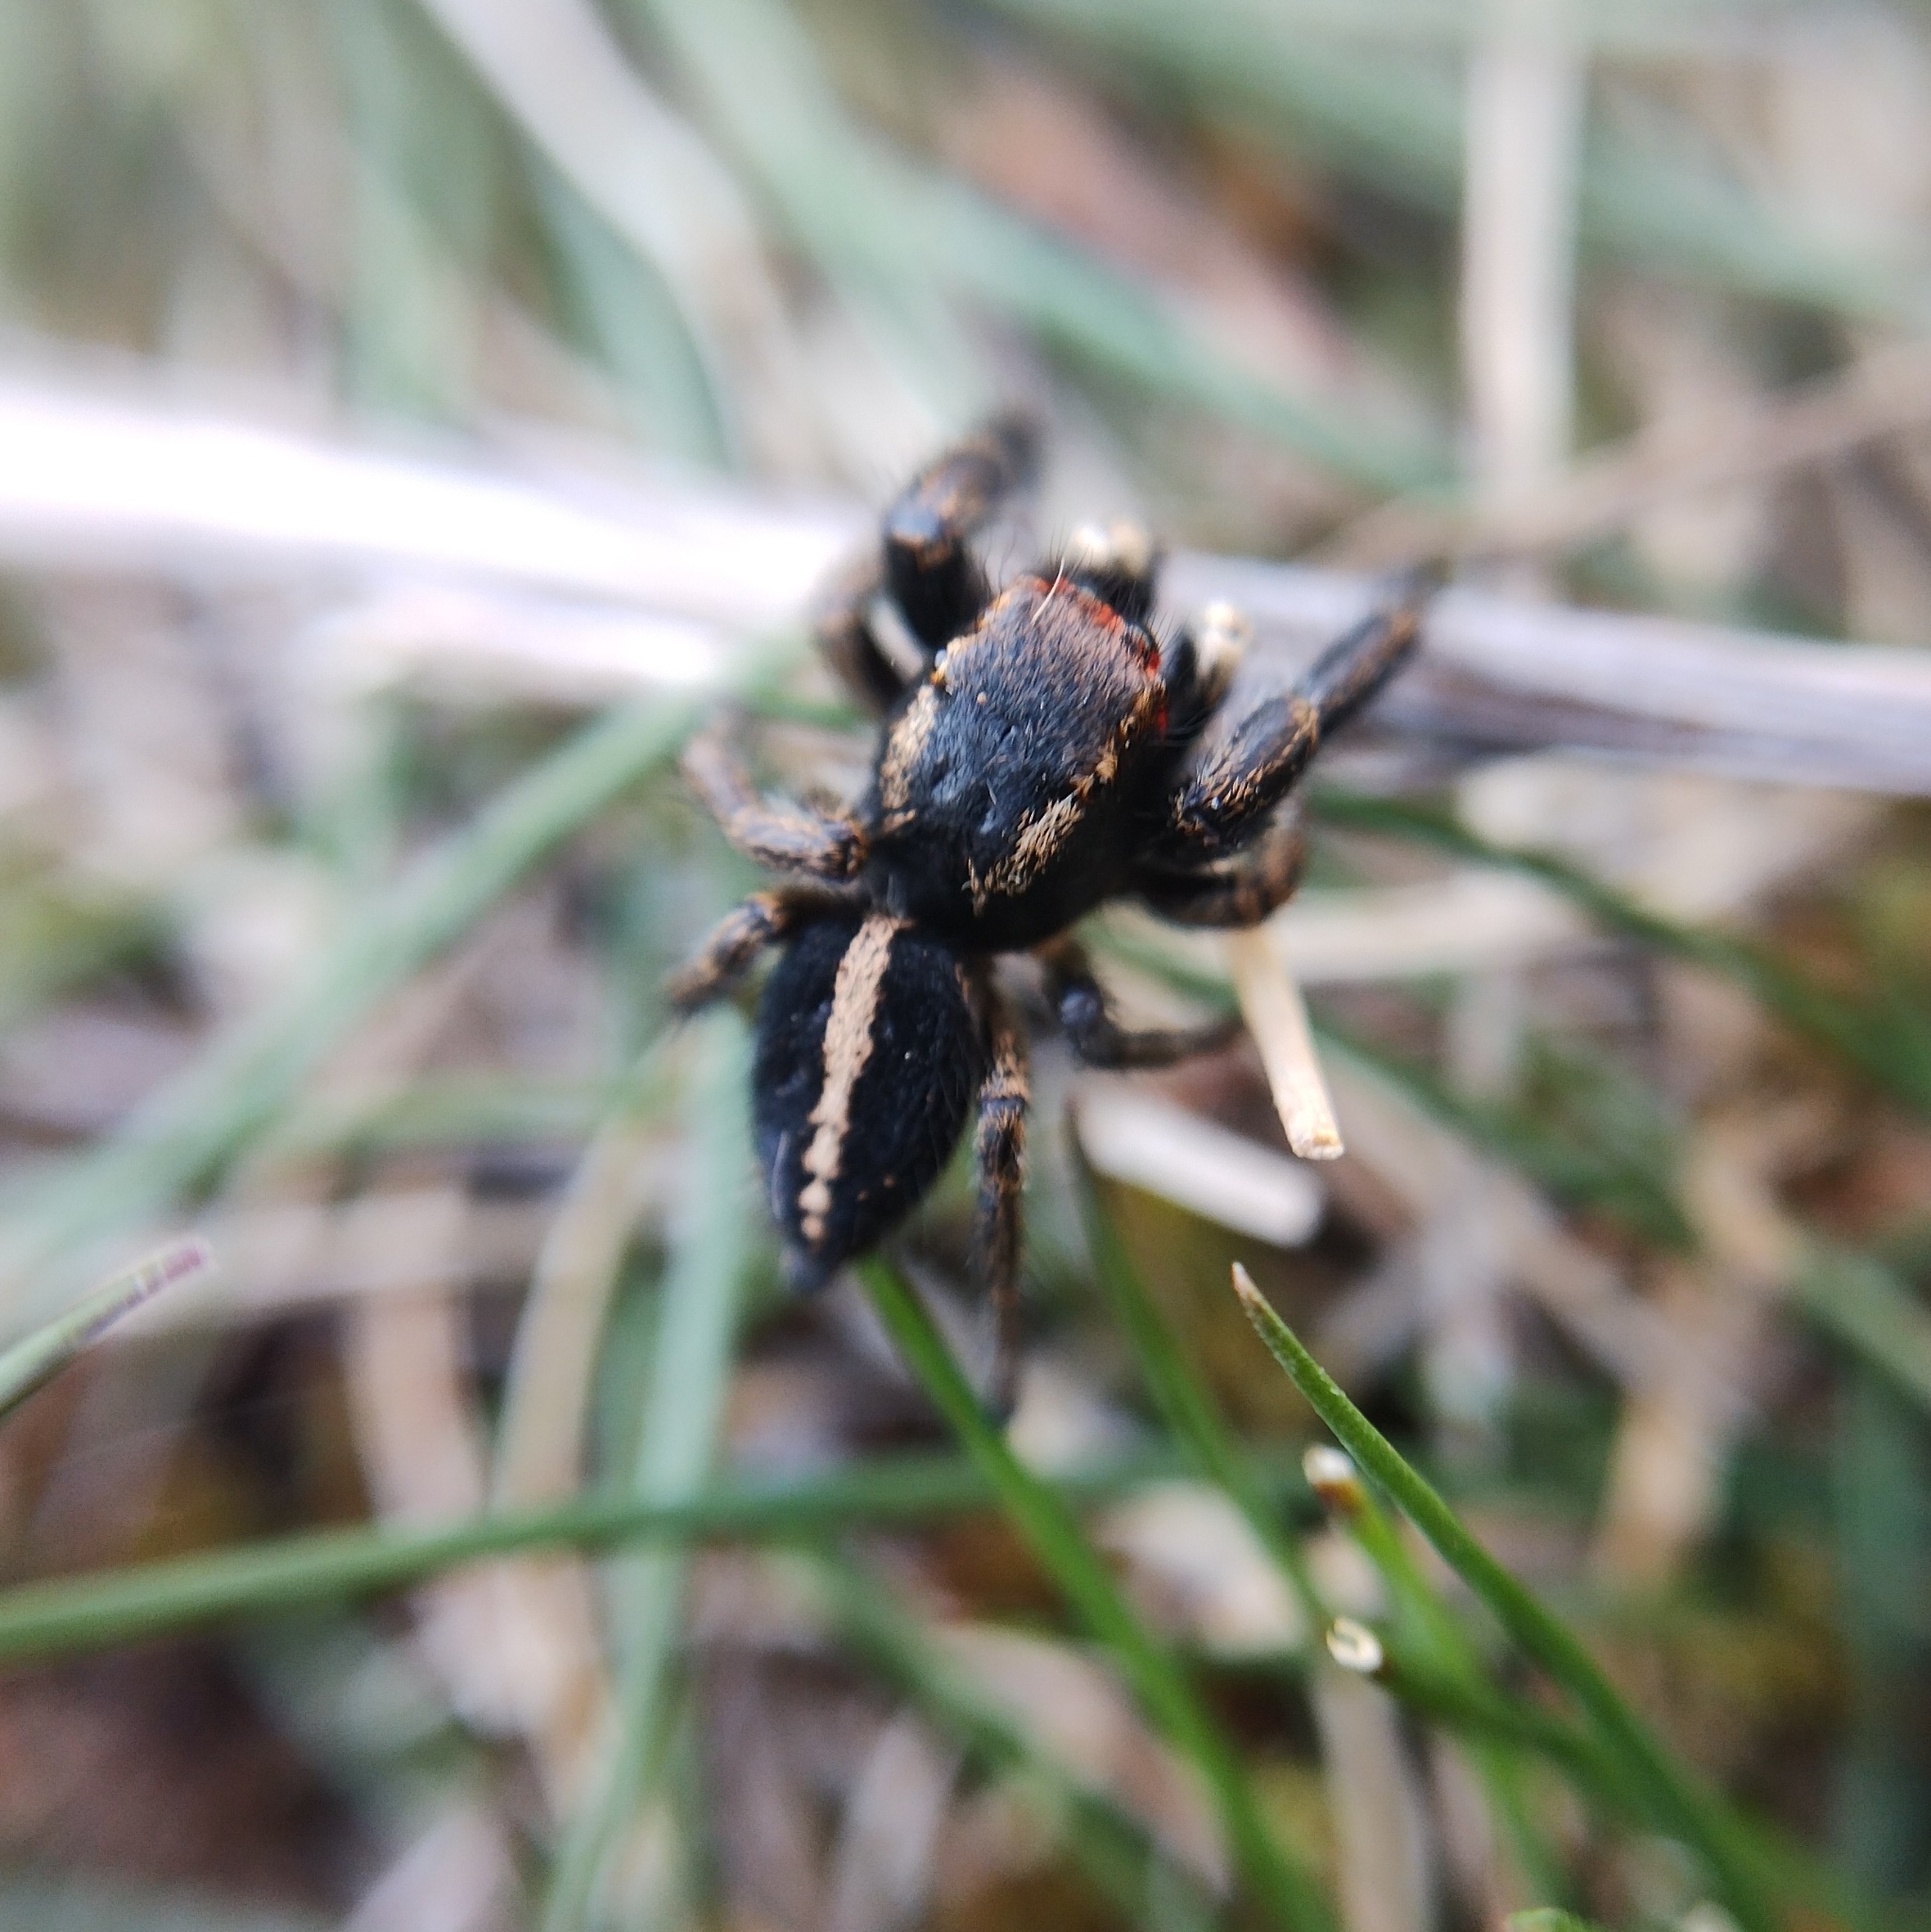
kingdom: Animalia
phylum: Arthropoda
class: Arachnida
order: Araneae
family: Salticidae
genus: Pellenes
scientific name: Pellenes seriatus
